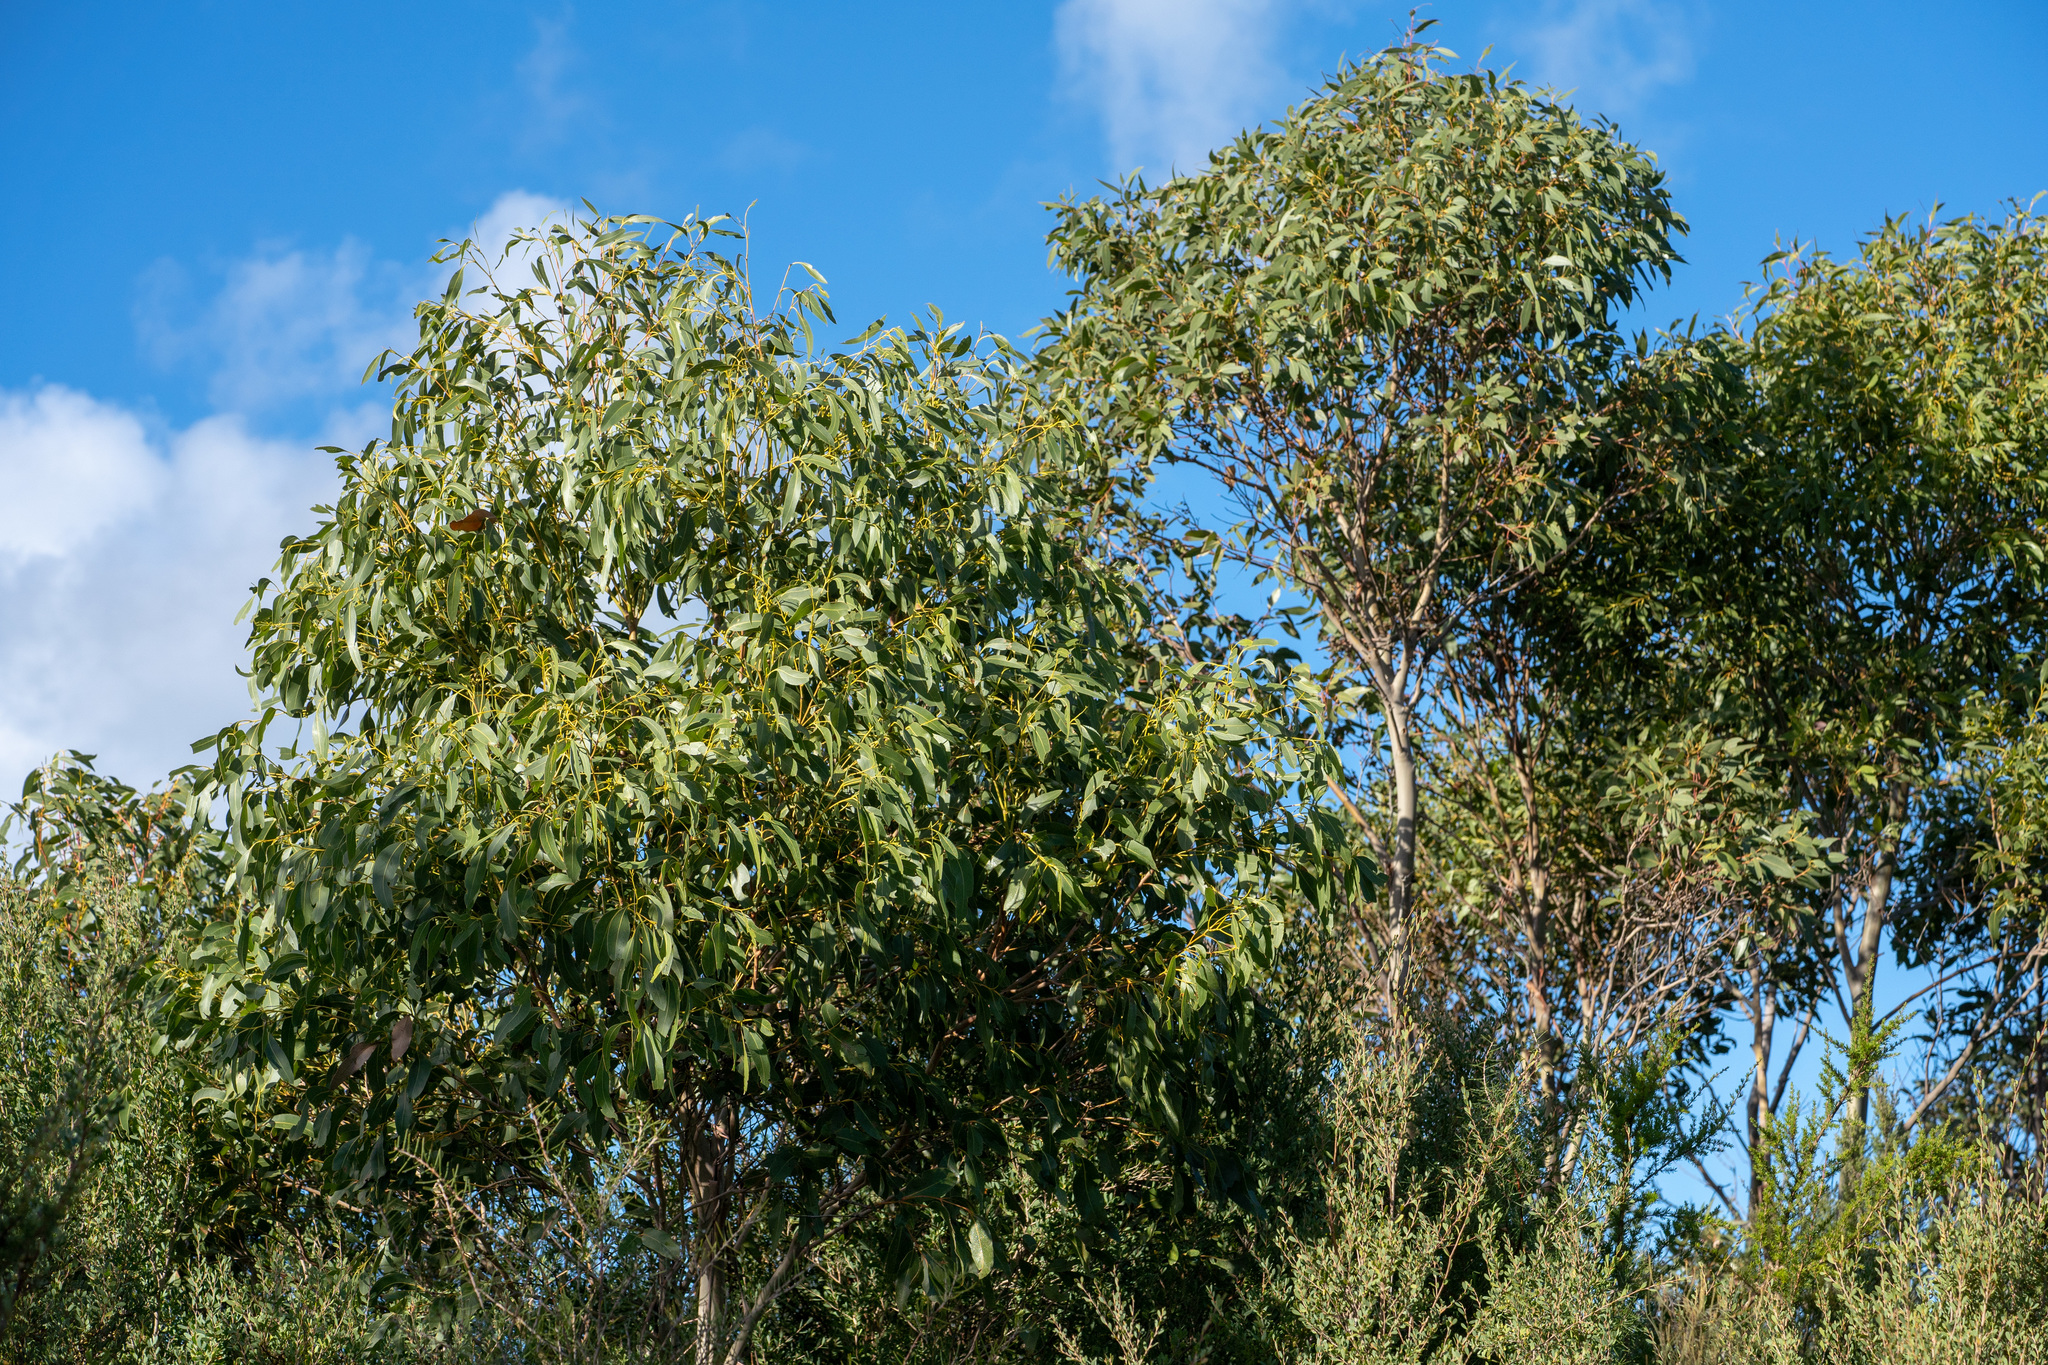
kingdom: Plantae
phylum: Tracheophyta
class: Magnoliopsida
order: Myrtales
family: Myrtaceae
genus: Eucalyptus
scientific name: Eucalyptus kitsoniana
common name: Gippsland mallee
